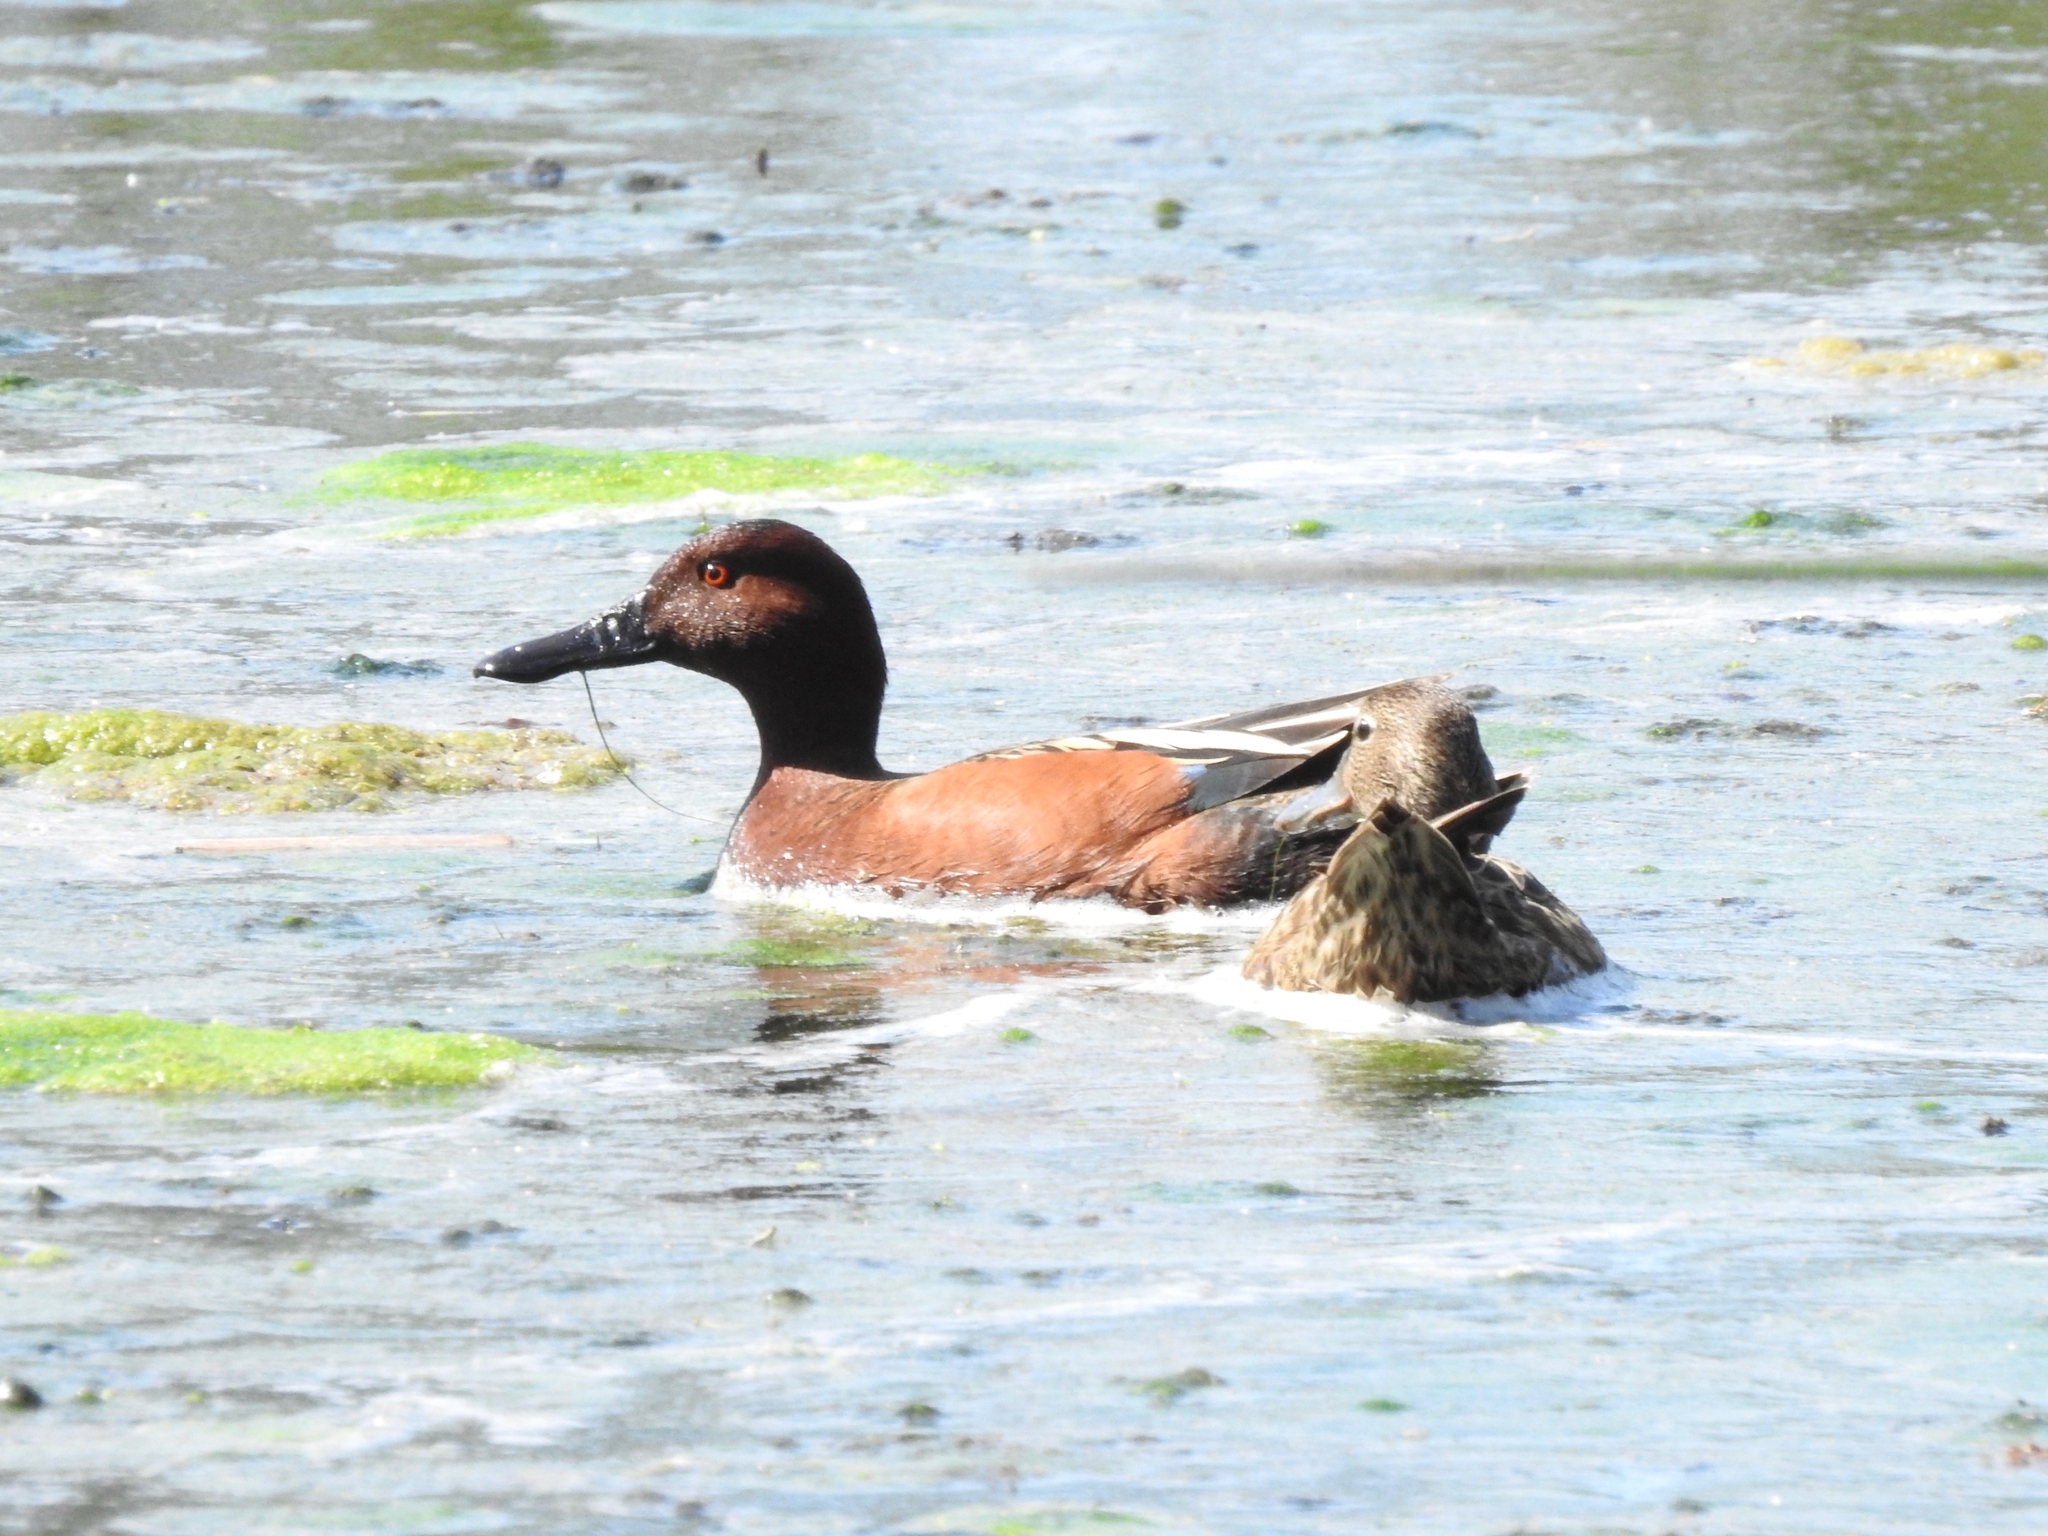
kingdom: Animalia
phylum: Chordata
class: Aves
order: Anseriformes
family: Anatidae
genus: Spatula
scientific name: Spatula cyanoptera
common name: Cinnamon teal
